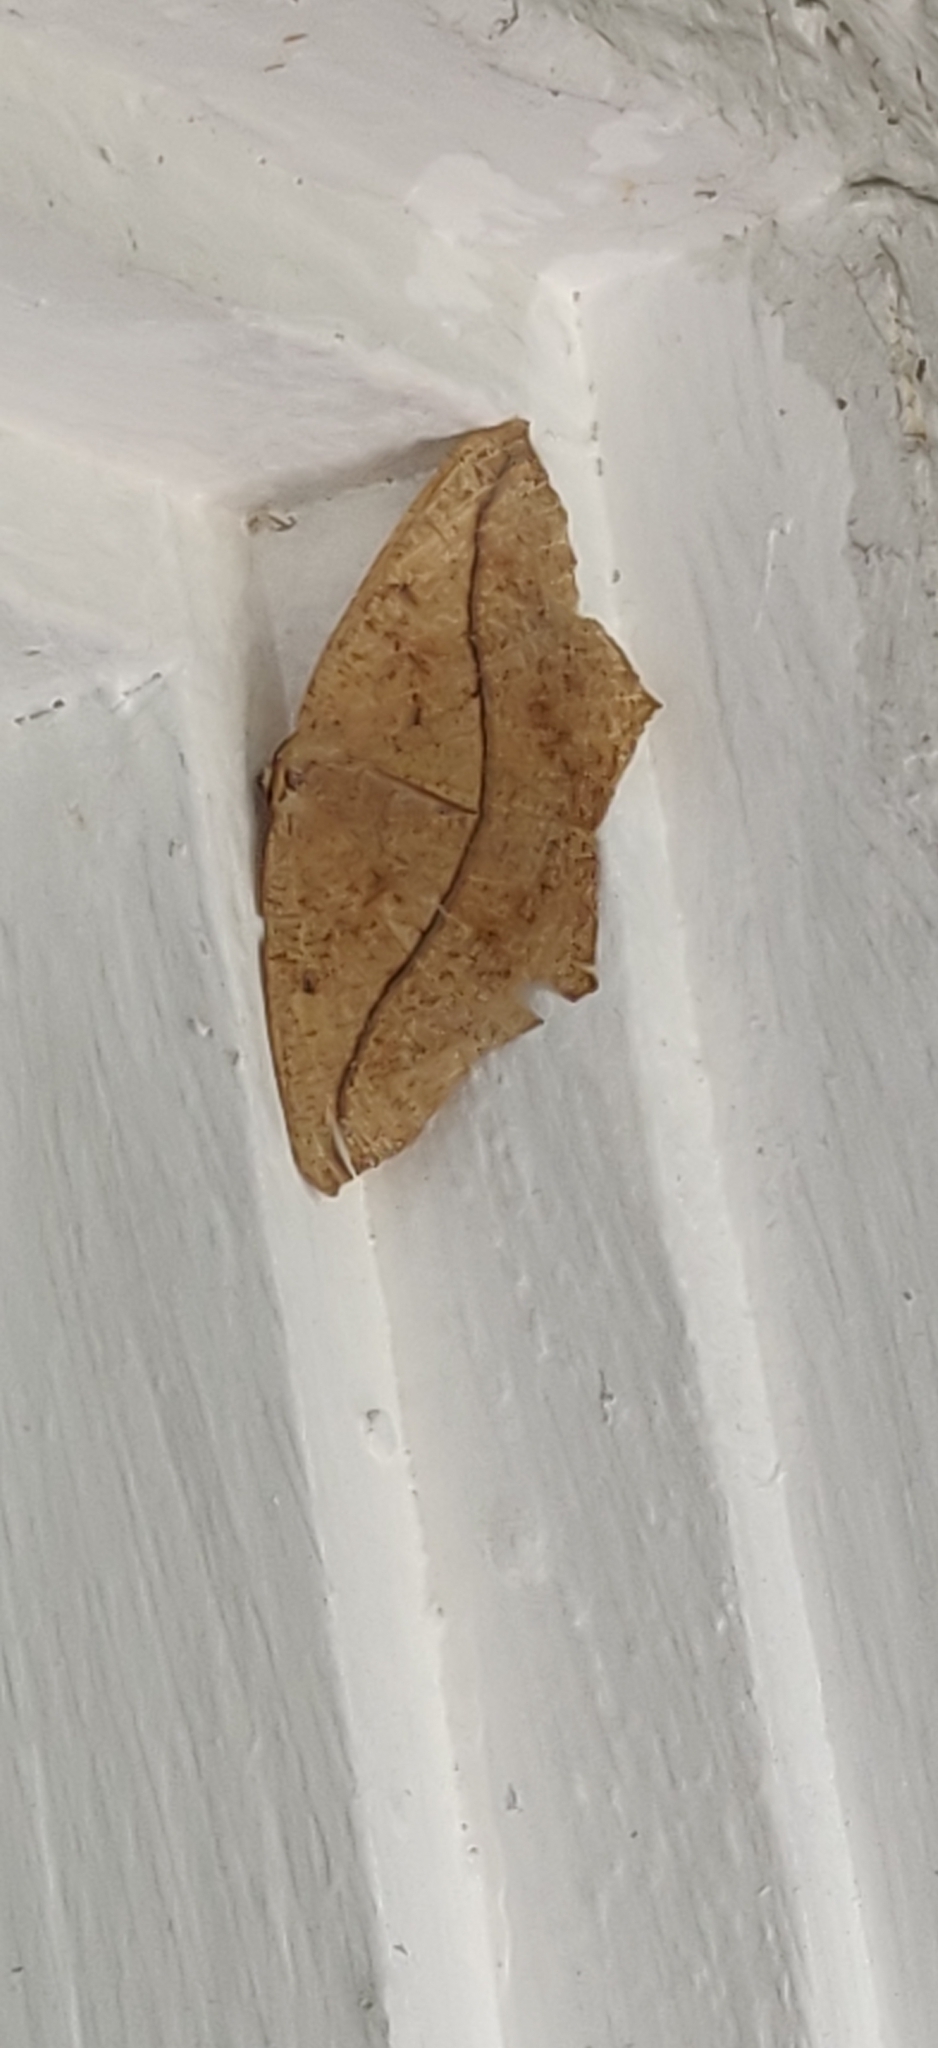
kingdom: Animalia
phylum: Arthropoda
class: Insecta
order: Lepidoptera
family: Geometridae
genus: Prochoerodes
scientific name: Prochoerodes lineola
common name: Large maple spanworm
